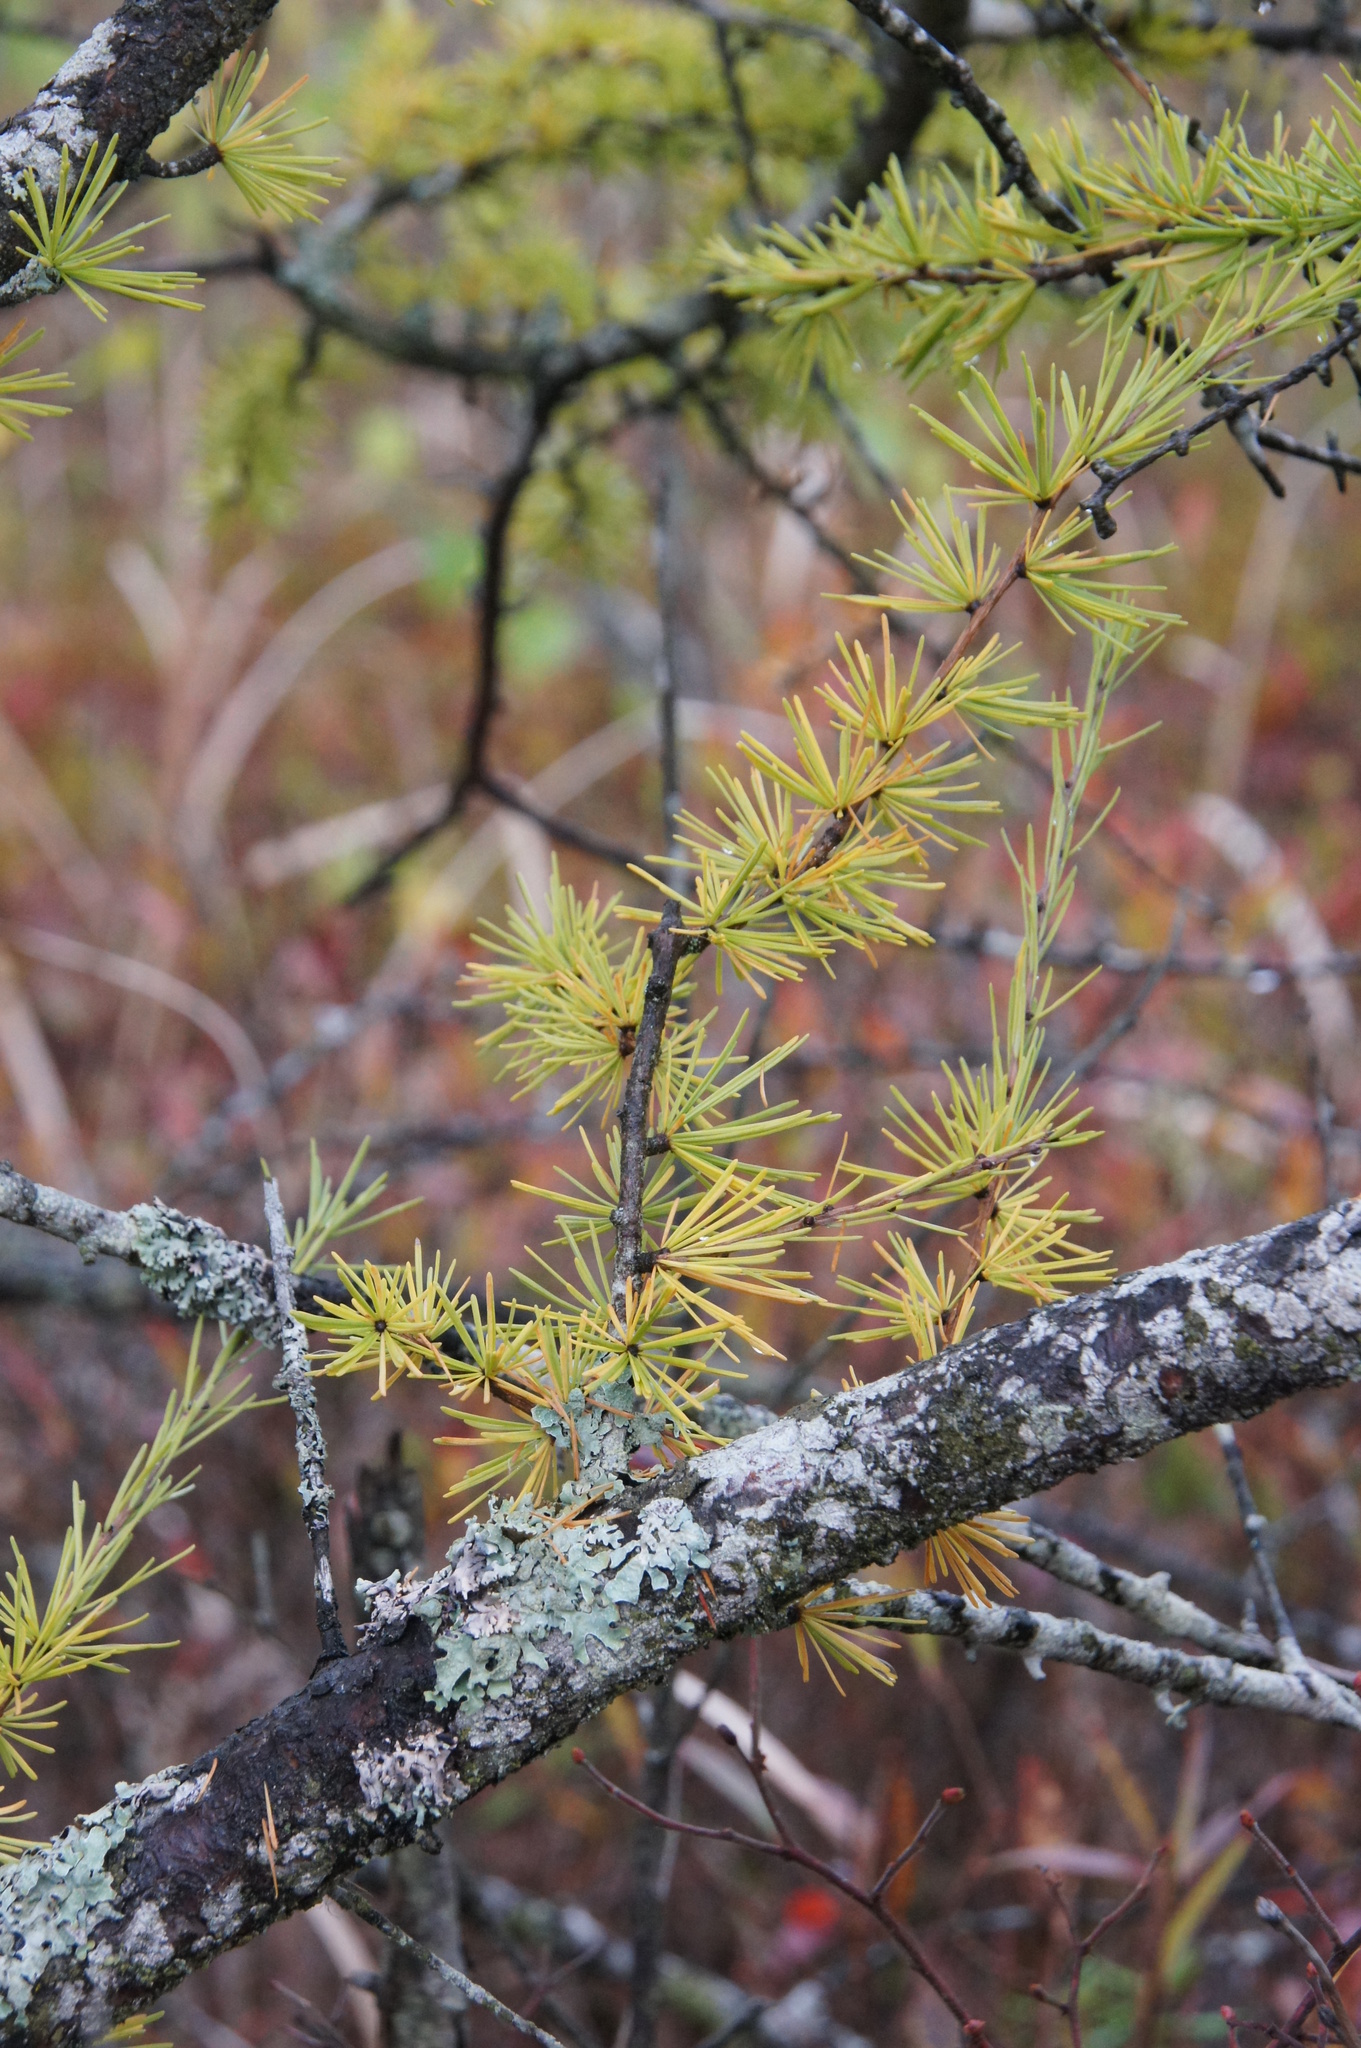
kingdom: Plantae
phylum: Tracheophyta
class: Pinopsida
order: Pinales
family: Pinaceae
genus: Larix
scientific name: Larix laricina
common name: American larch
